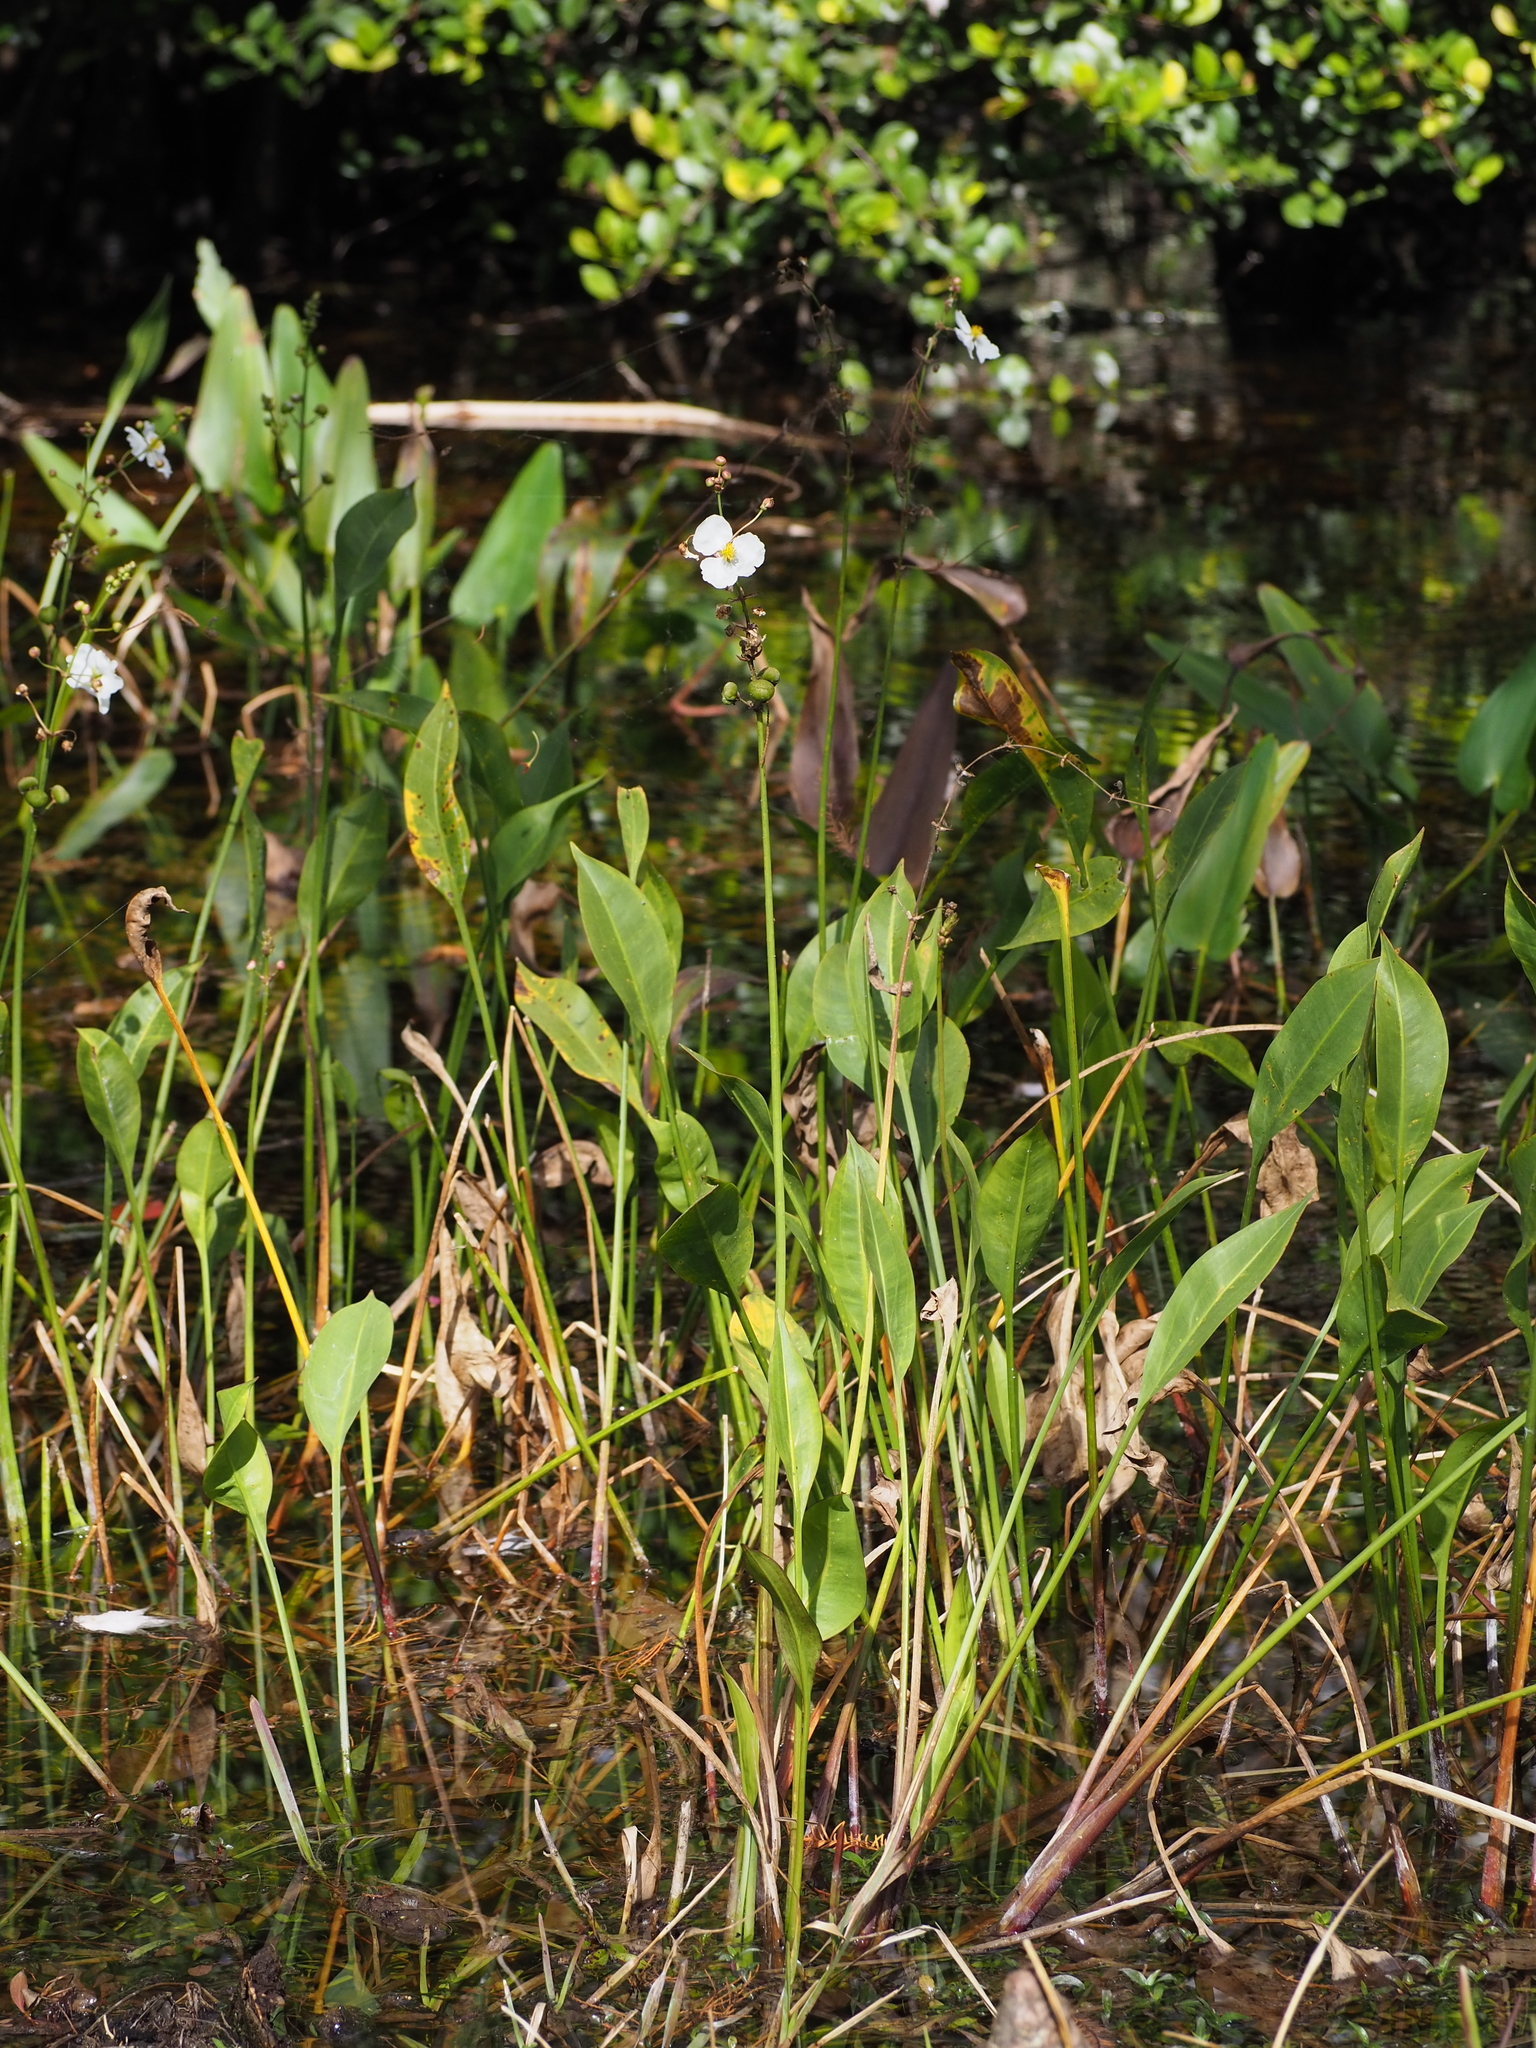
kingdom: Plantae
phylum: Tracheophyta
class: Liliopsida
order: Alismatales
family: Alismataceae
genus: Sagittaria
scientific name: Sagittaria lancifolia
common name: Lance-leaf arrowhead
